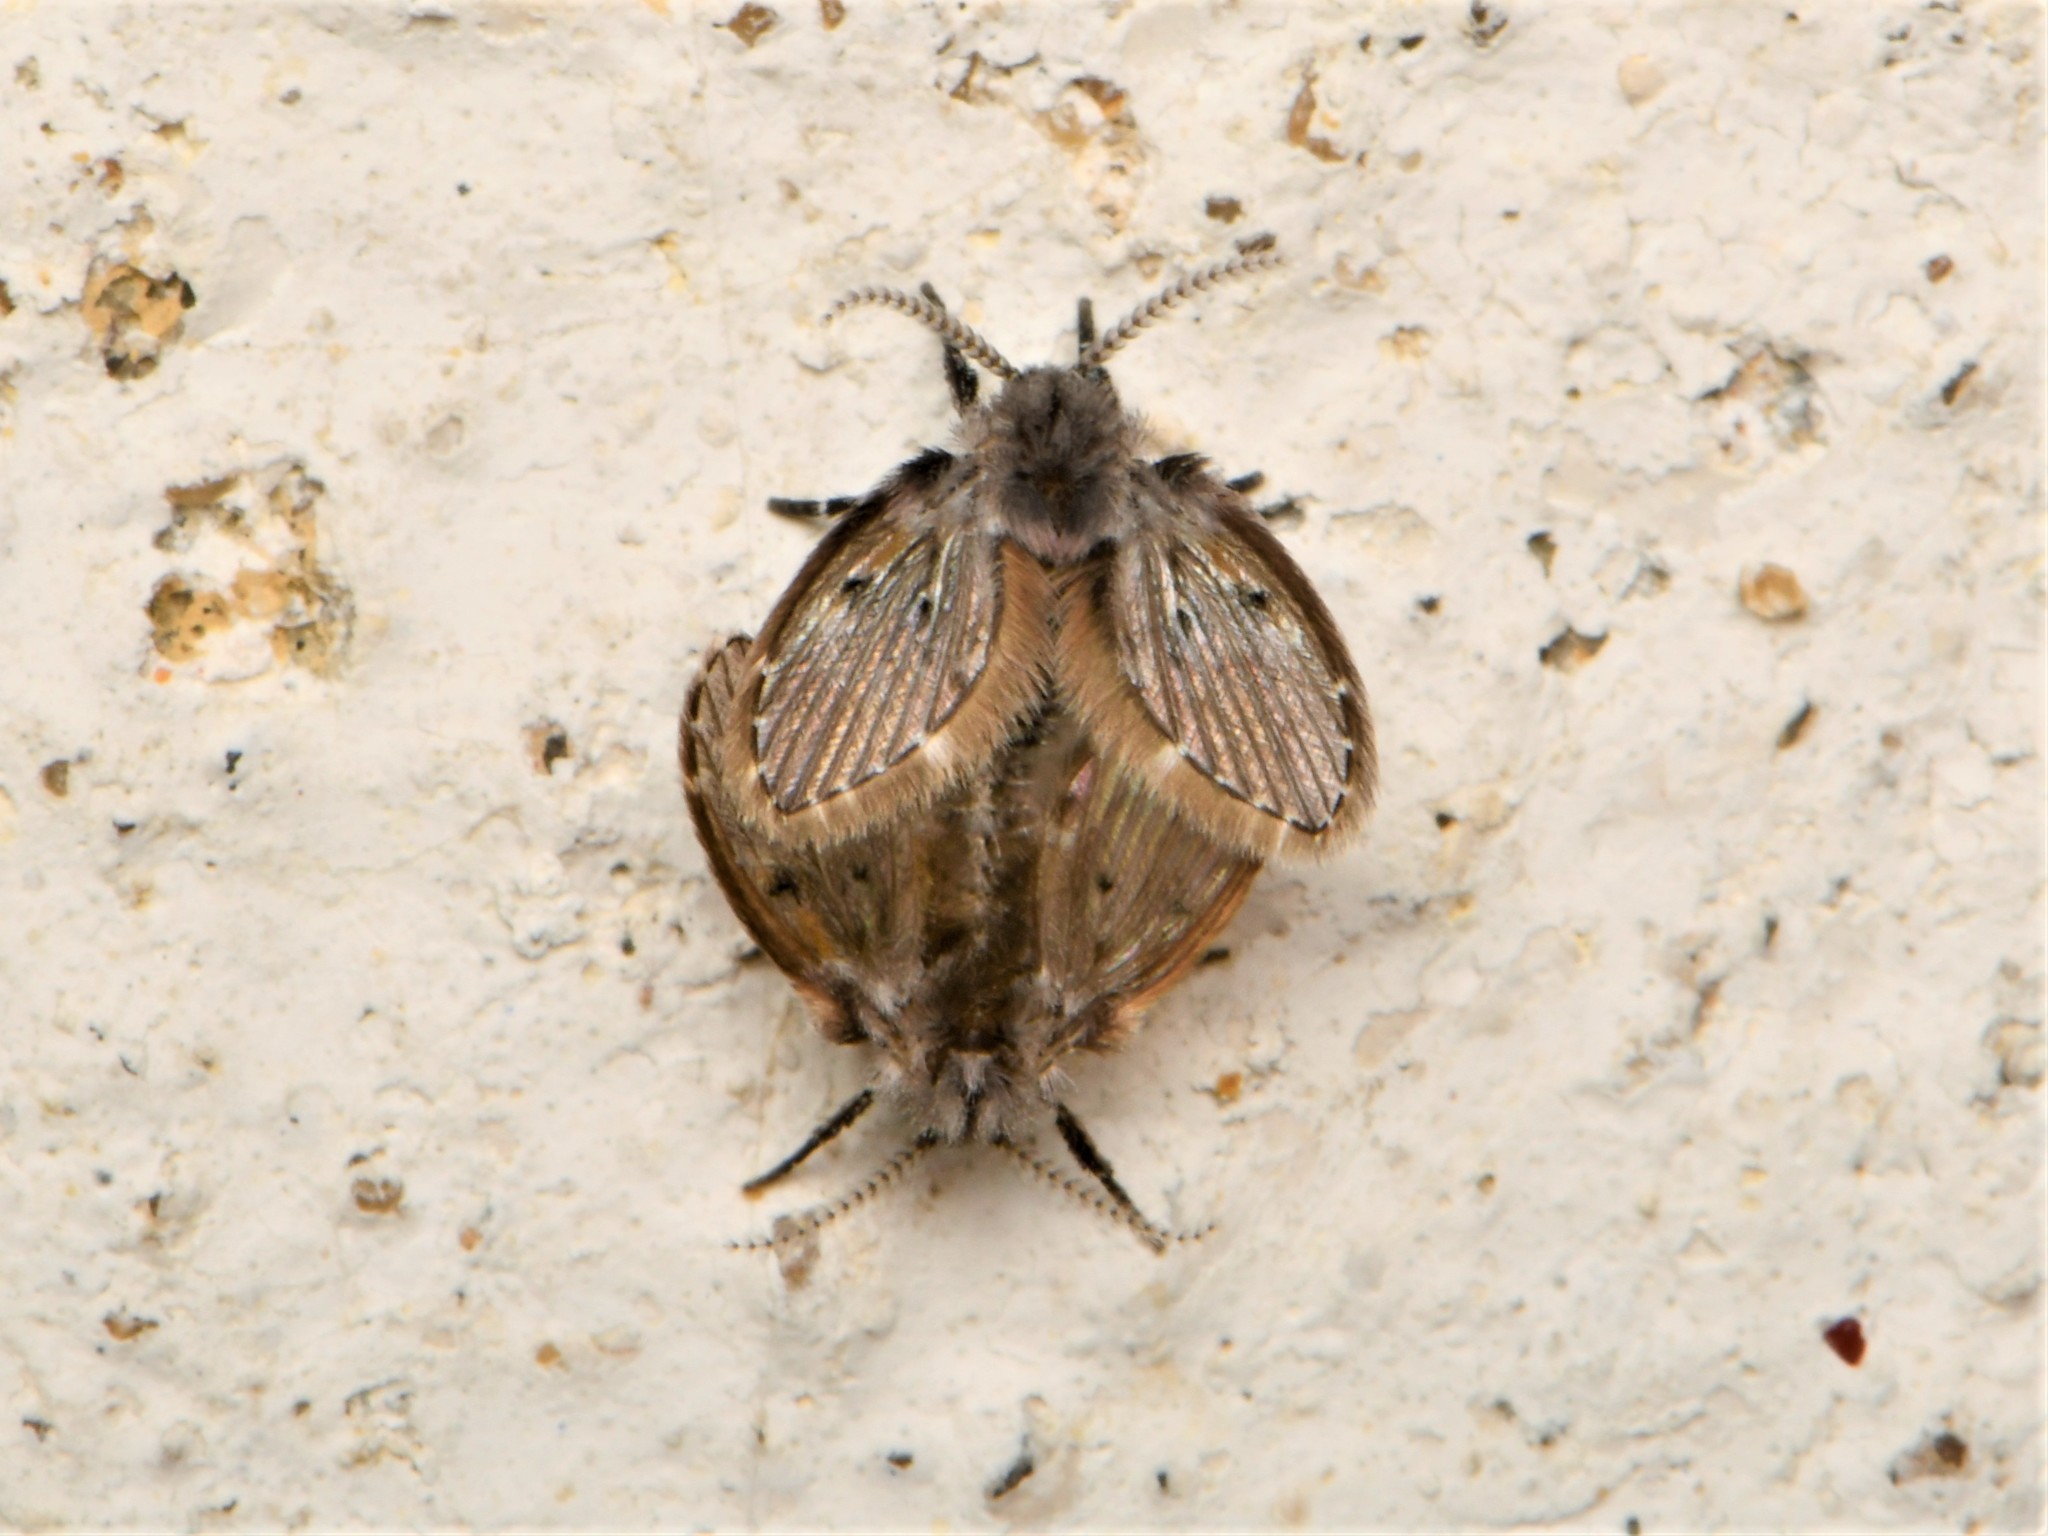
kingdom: Animalia
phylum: Arthropoda
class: Insecta
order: Diptera
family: Psychodidae
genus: Clogmia
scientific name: Clogmia albipunctatus
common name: White-spotted moth fly
